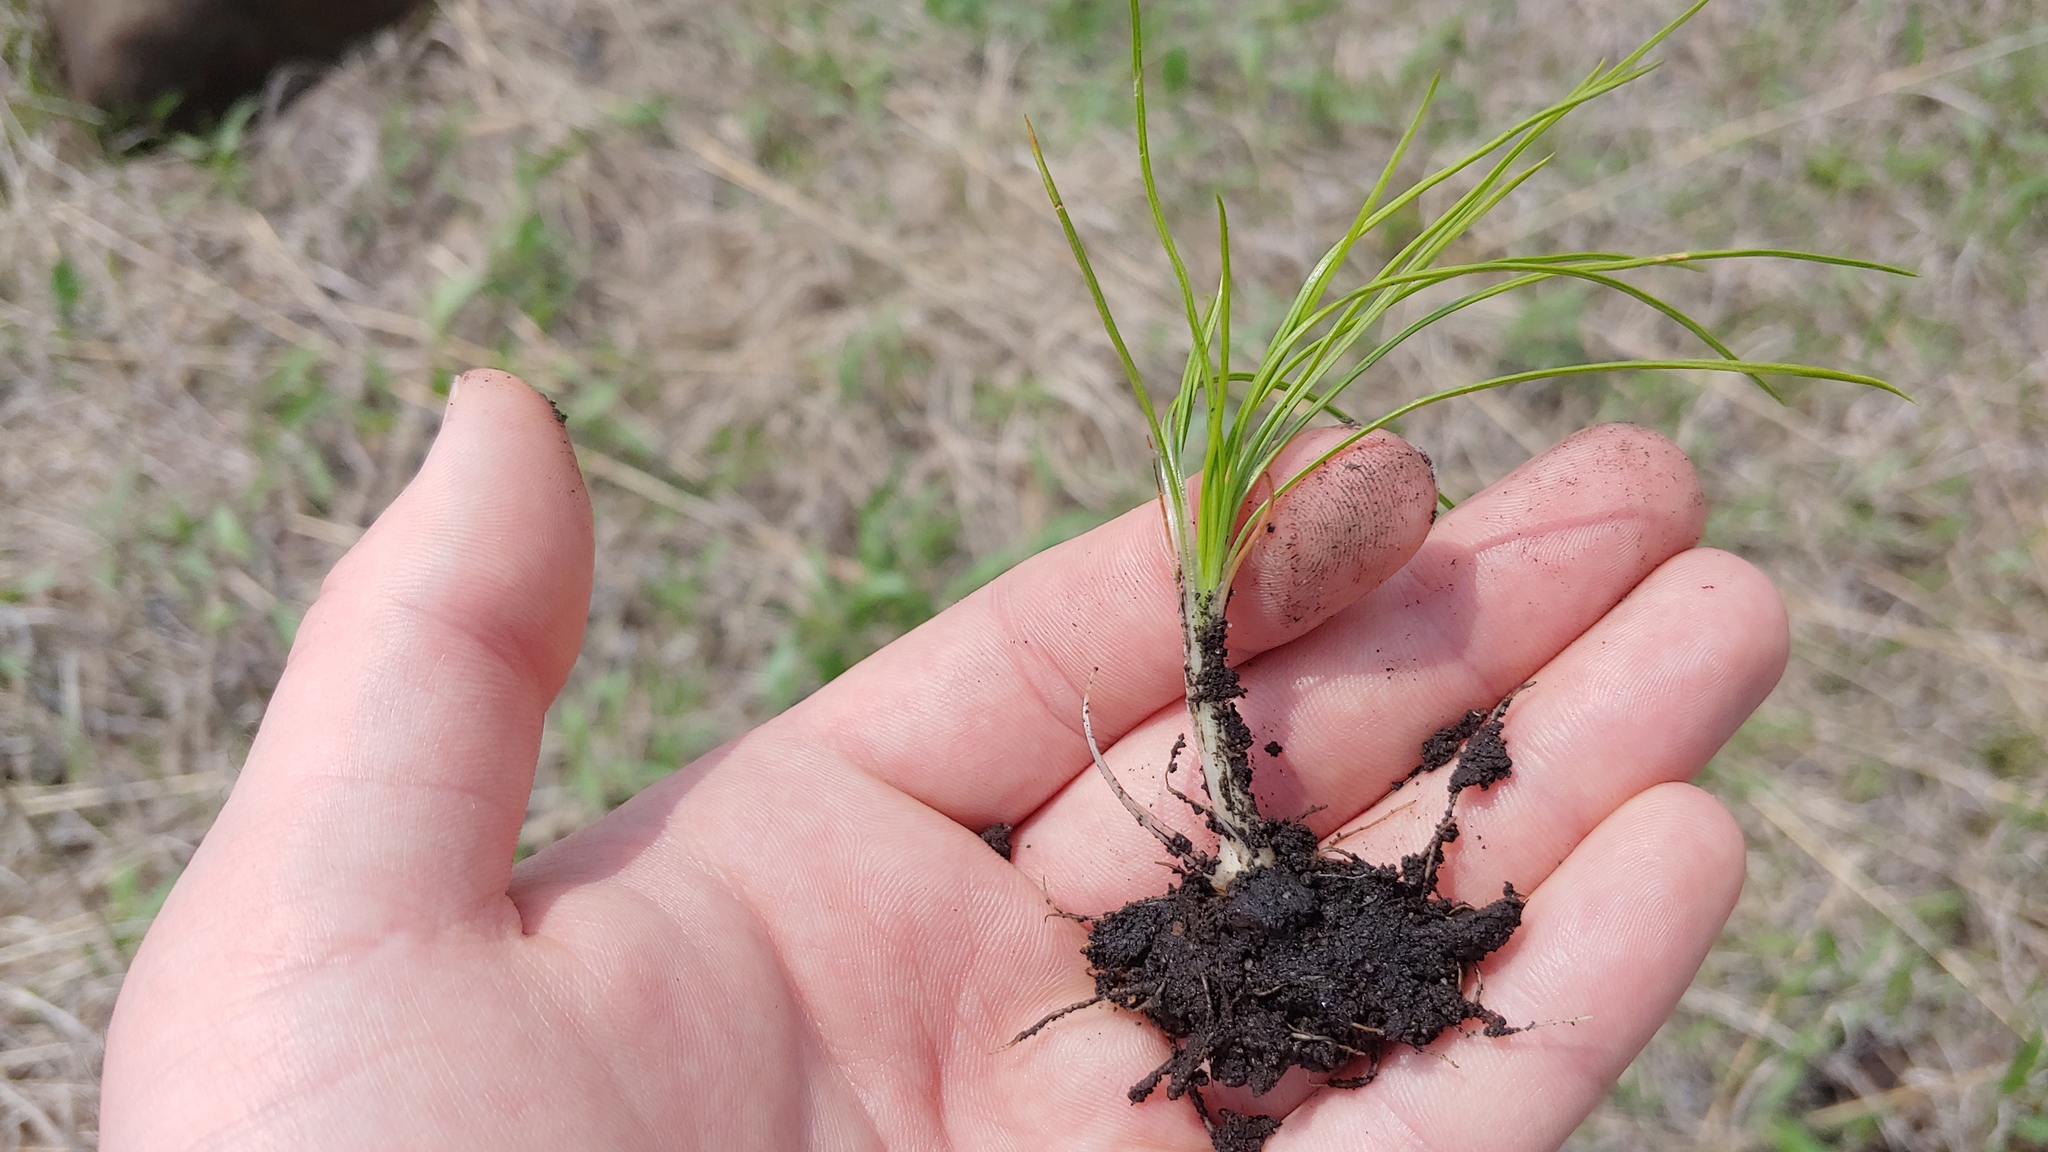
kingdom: Plantae
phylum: Tracheophyta
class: Lycopodiopsida
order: Isoetales
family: Isoetaceae
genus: Isoetes
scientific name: Isoetes butleri
